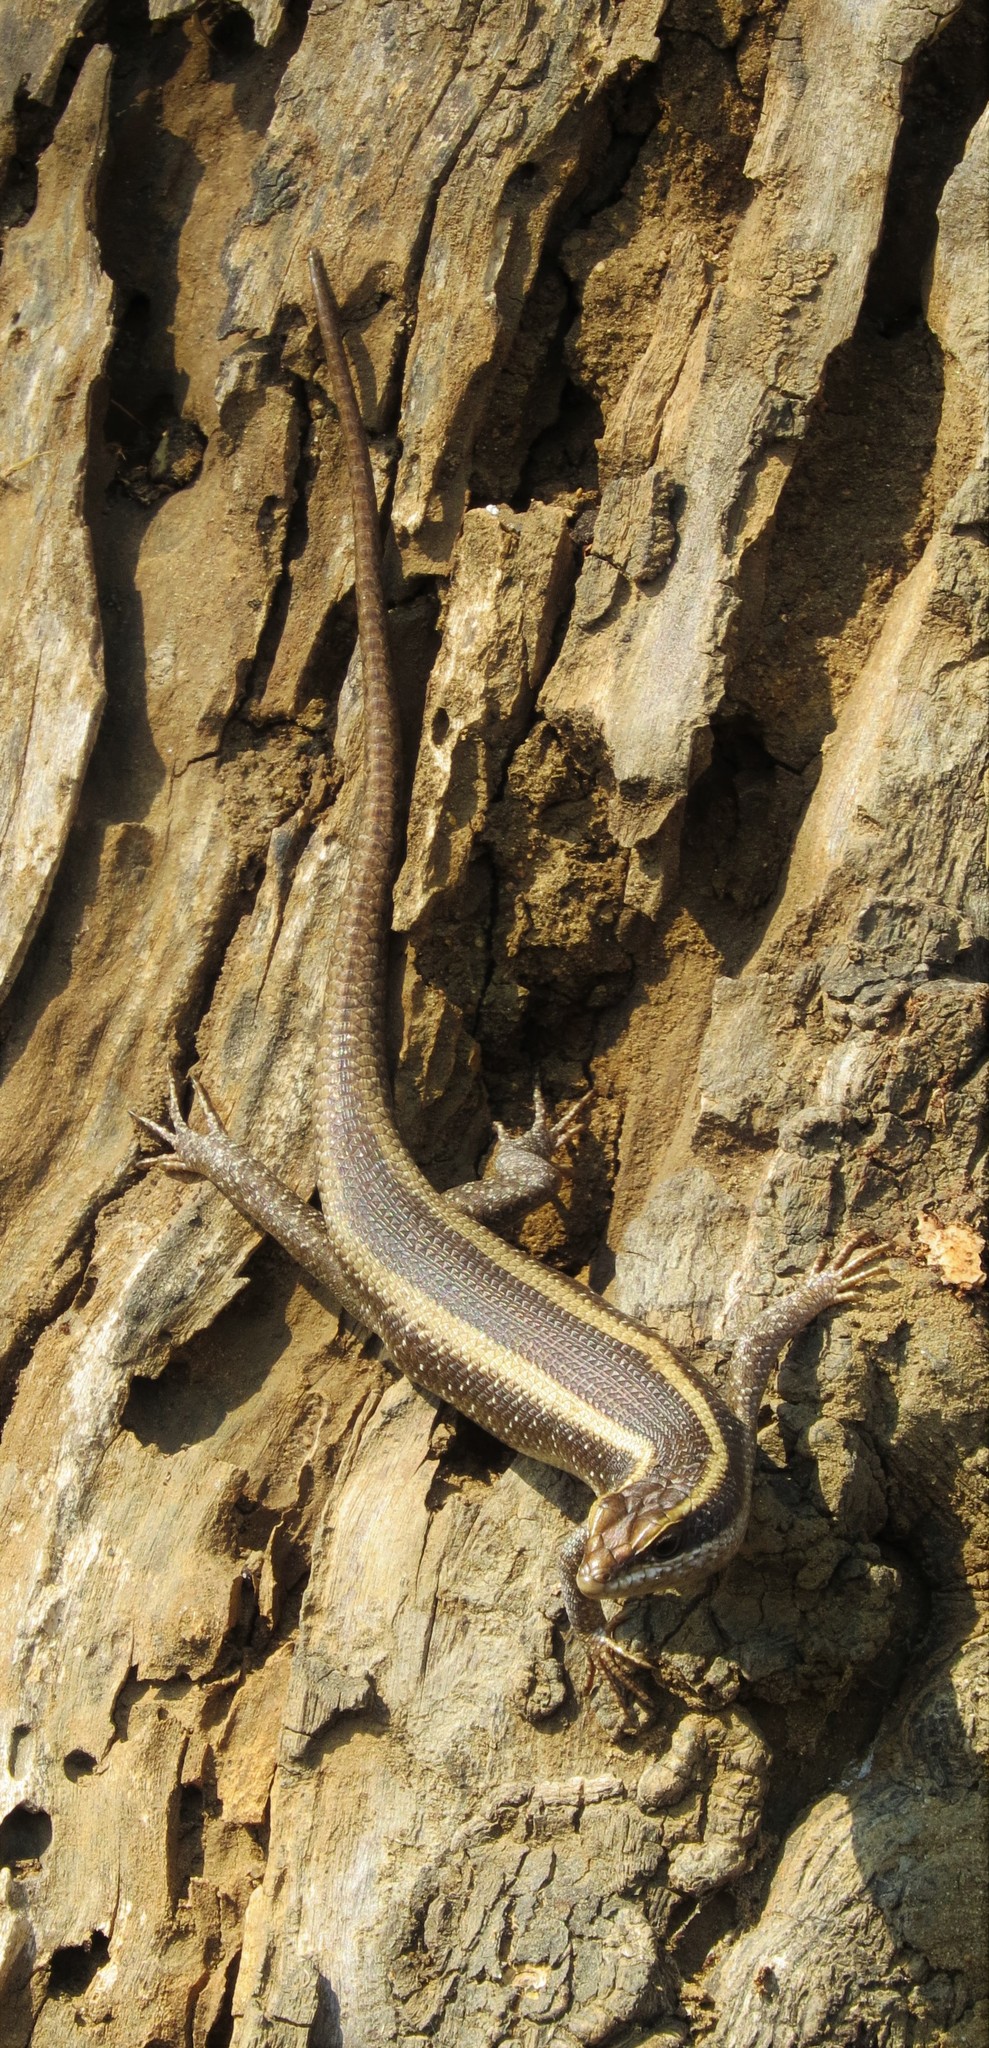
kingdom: Animalia
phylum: Chordata
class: Squamata
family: Scincidae
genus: Trachylepis
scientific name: Trachylepis striata
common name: African striped mabuya
